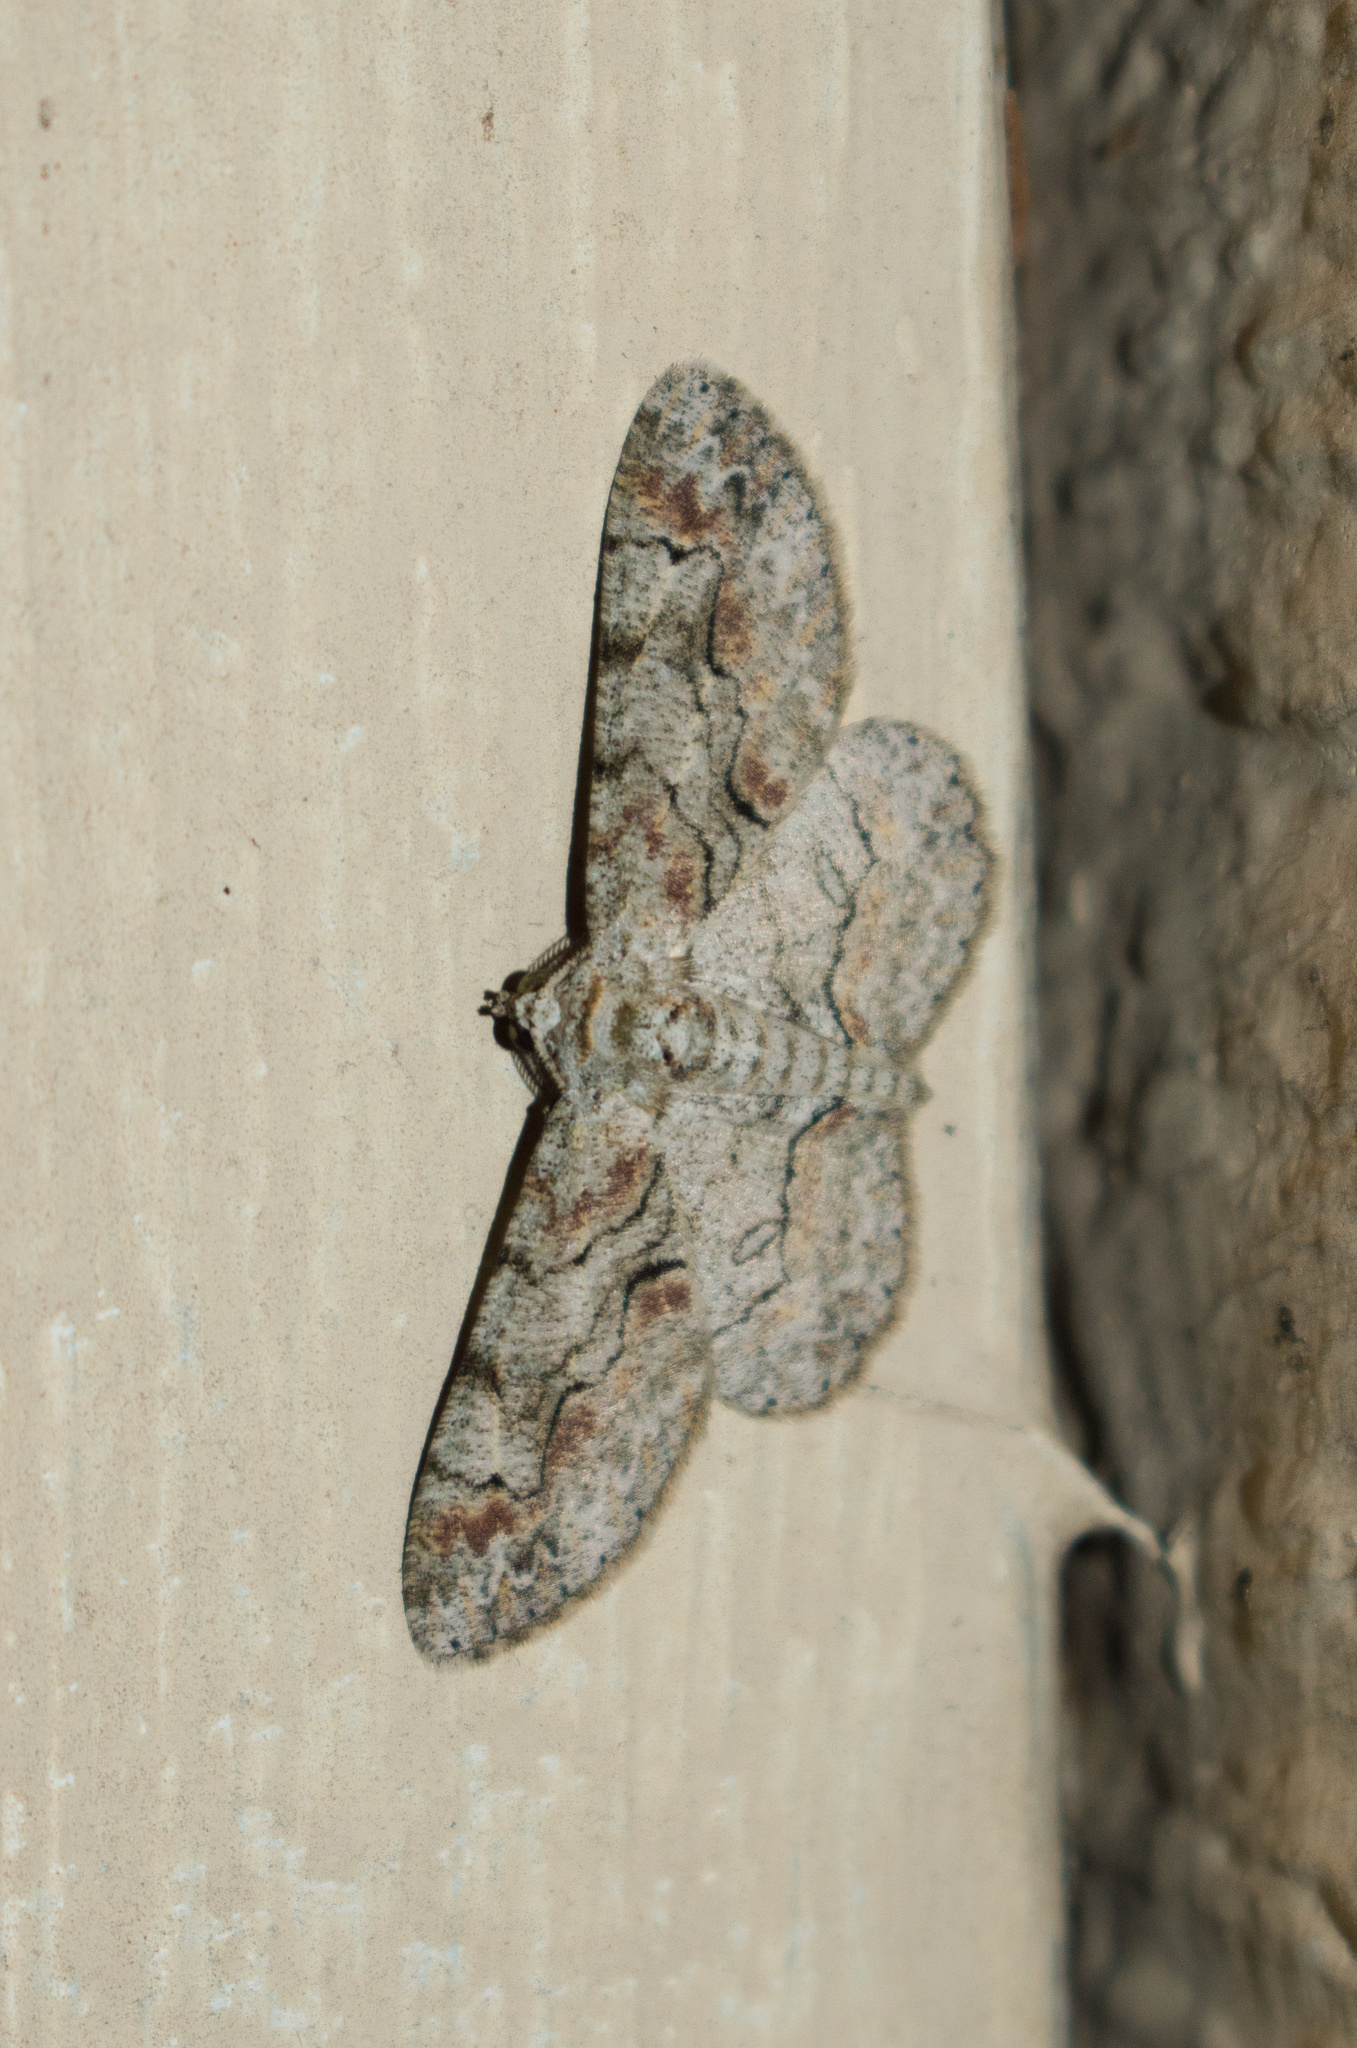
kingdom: Animalia
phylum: Arthropoda
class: Insecta
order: Lepidoptera
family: Geometridae
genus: Iridopsis
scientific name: Iridopsis defectaria
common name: Brown-shaded gray
